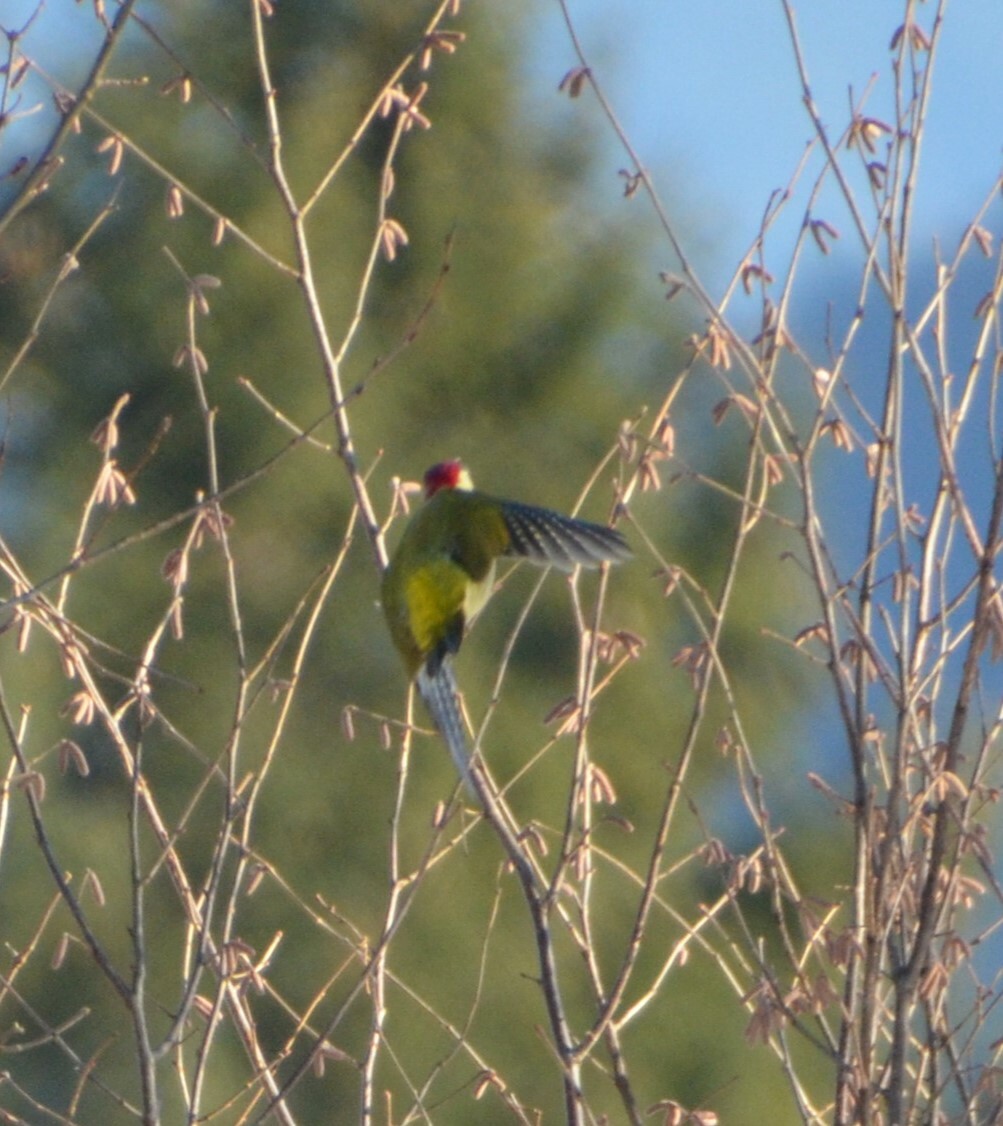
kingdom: Animalia
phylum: Chordata
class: Aves
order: Piciformes
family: Picidae
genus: Picus
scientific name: Picus viridis
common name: European green woodpecker
